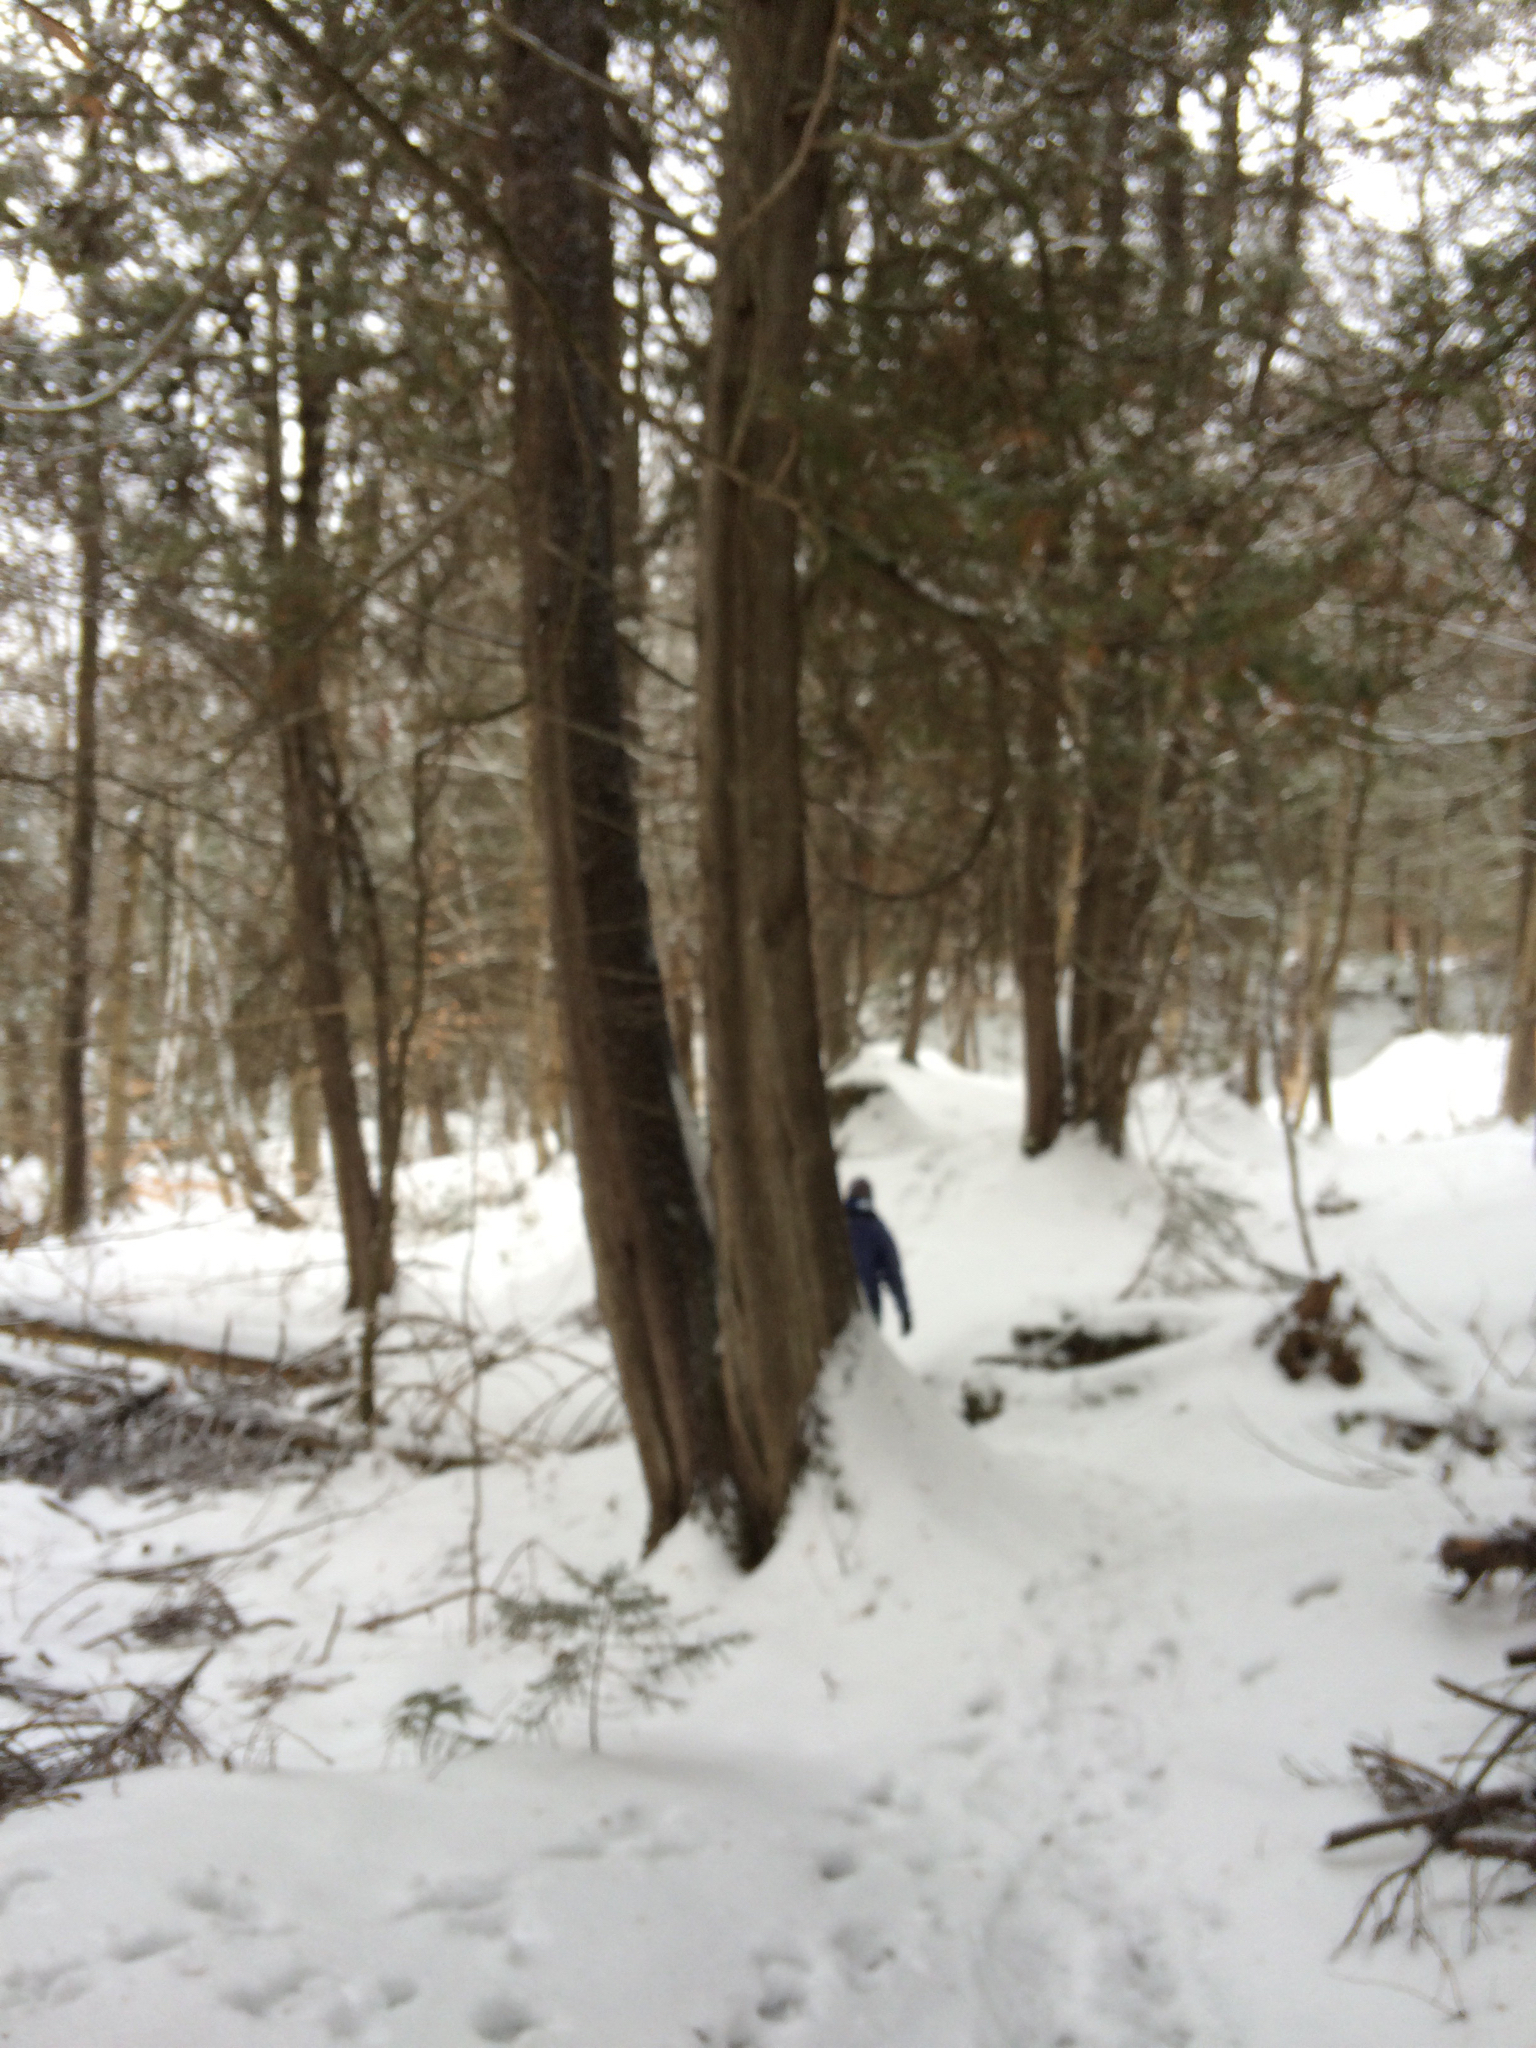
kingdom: Plantae
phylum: Tracheophyta
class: Pinopsida
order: Pinales
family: Cupressaceae
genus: Thuja
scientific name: Thuja occidentalis
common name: Northern white-cedar
